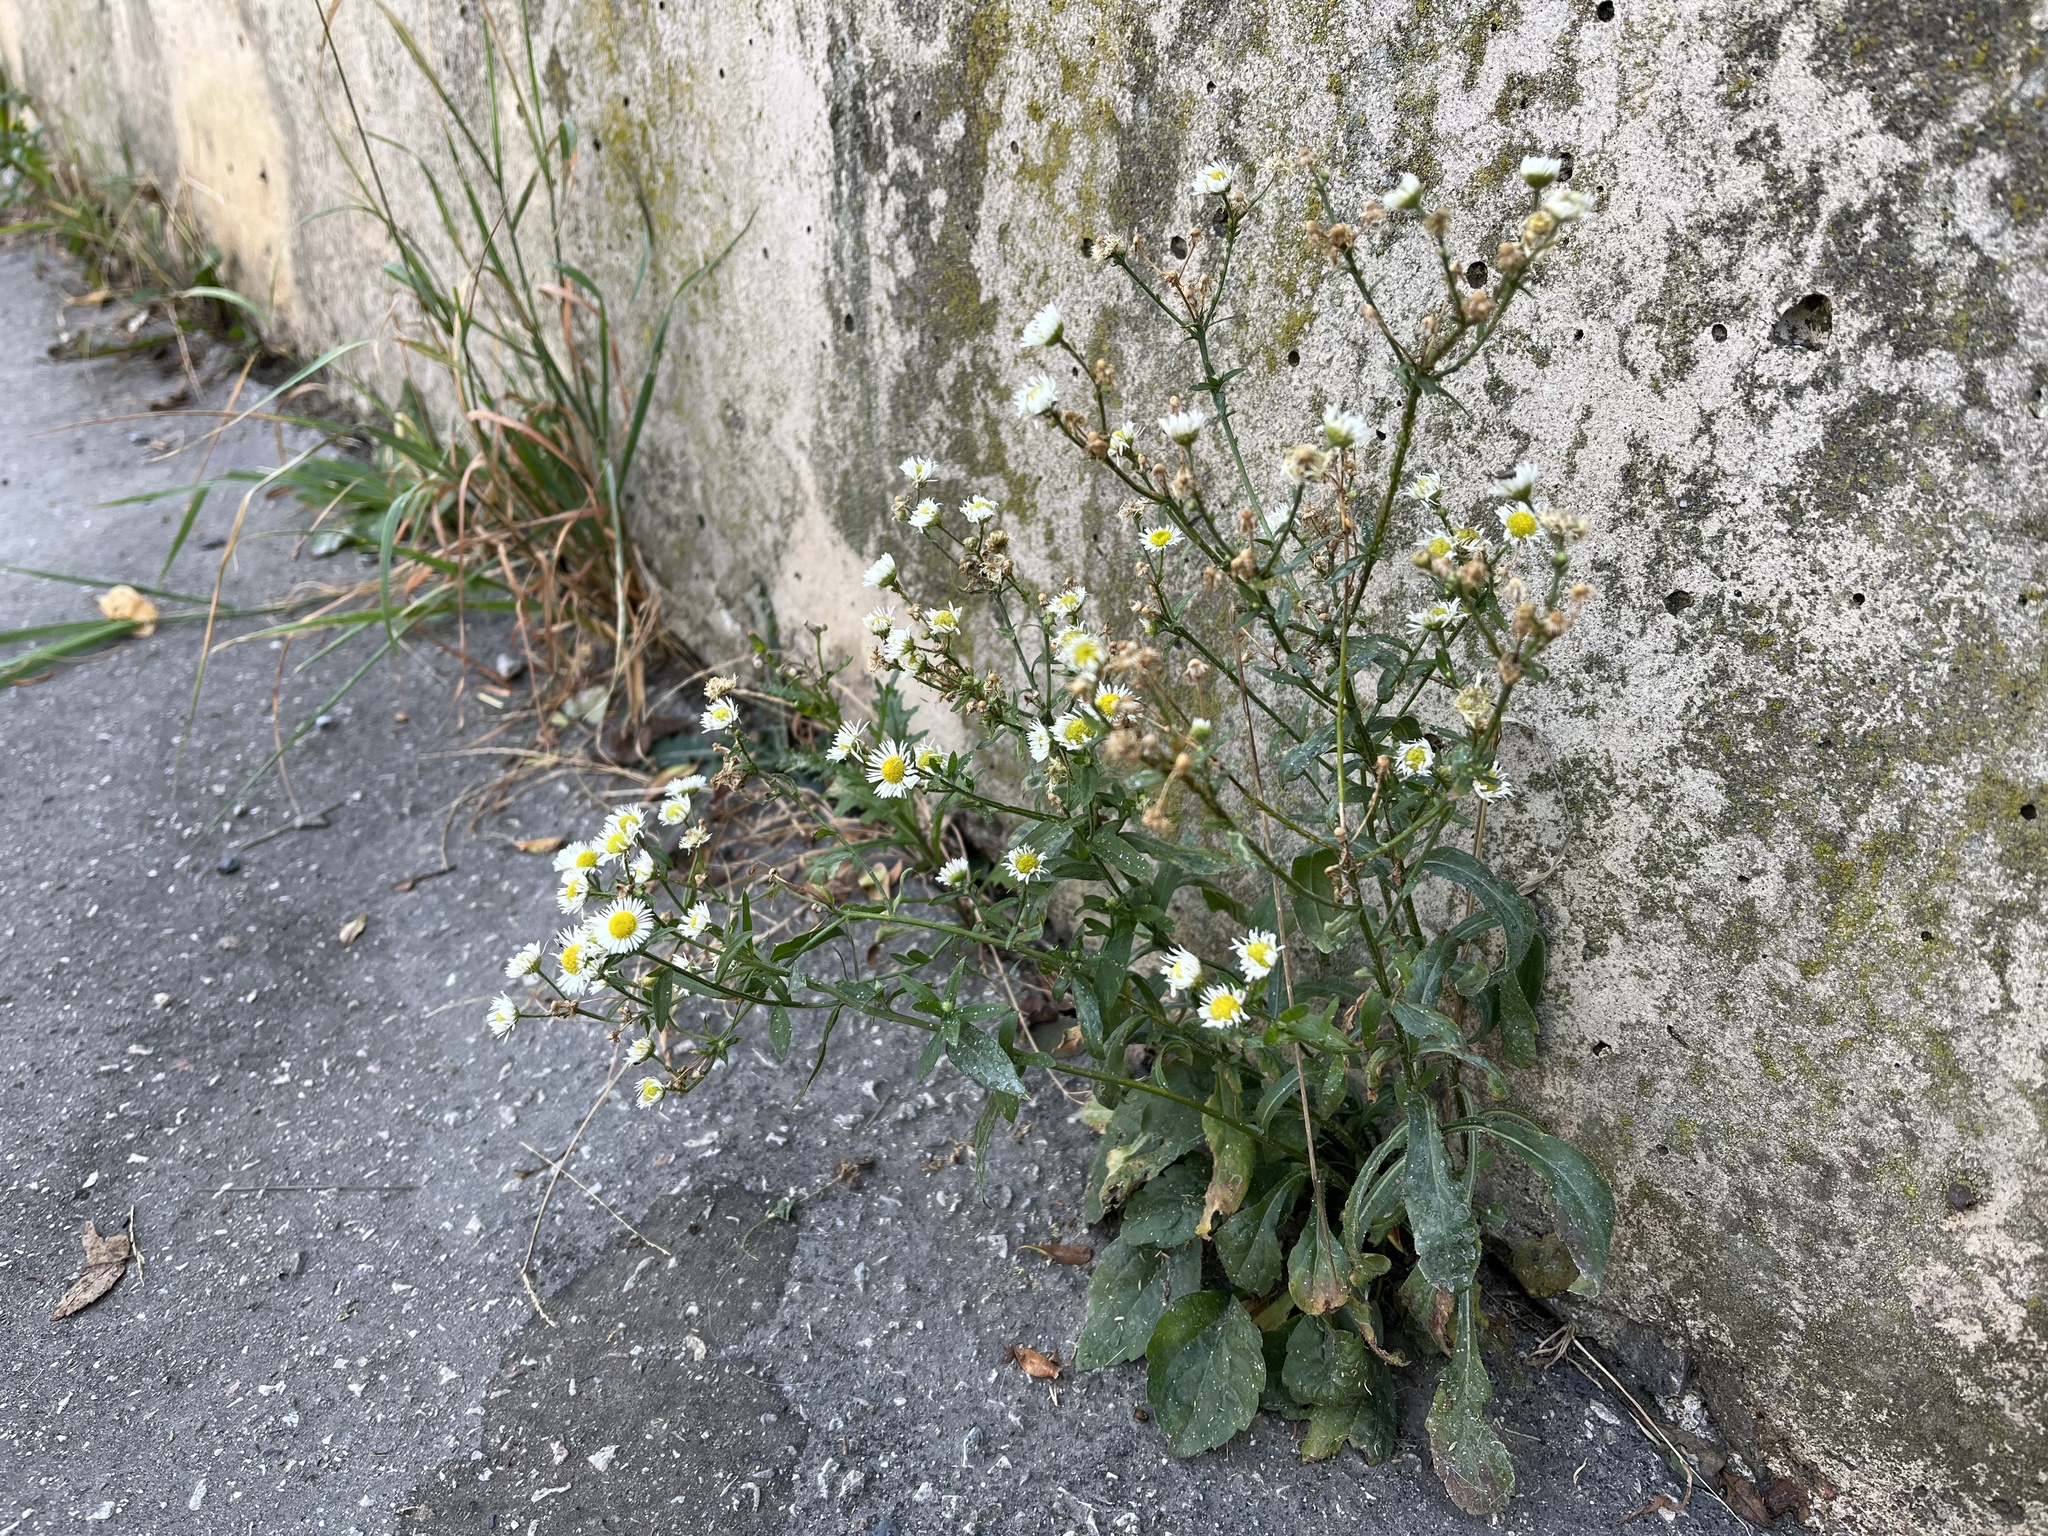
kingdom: Plantae
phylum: Tracheophyta
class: Magnoliopsida
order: Asterales
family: Asteraceae
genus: Erigeron
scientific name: Erigeron annuus
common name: Tall fleabane
